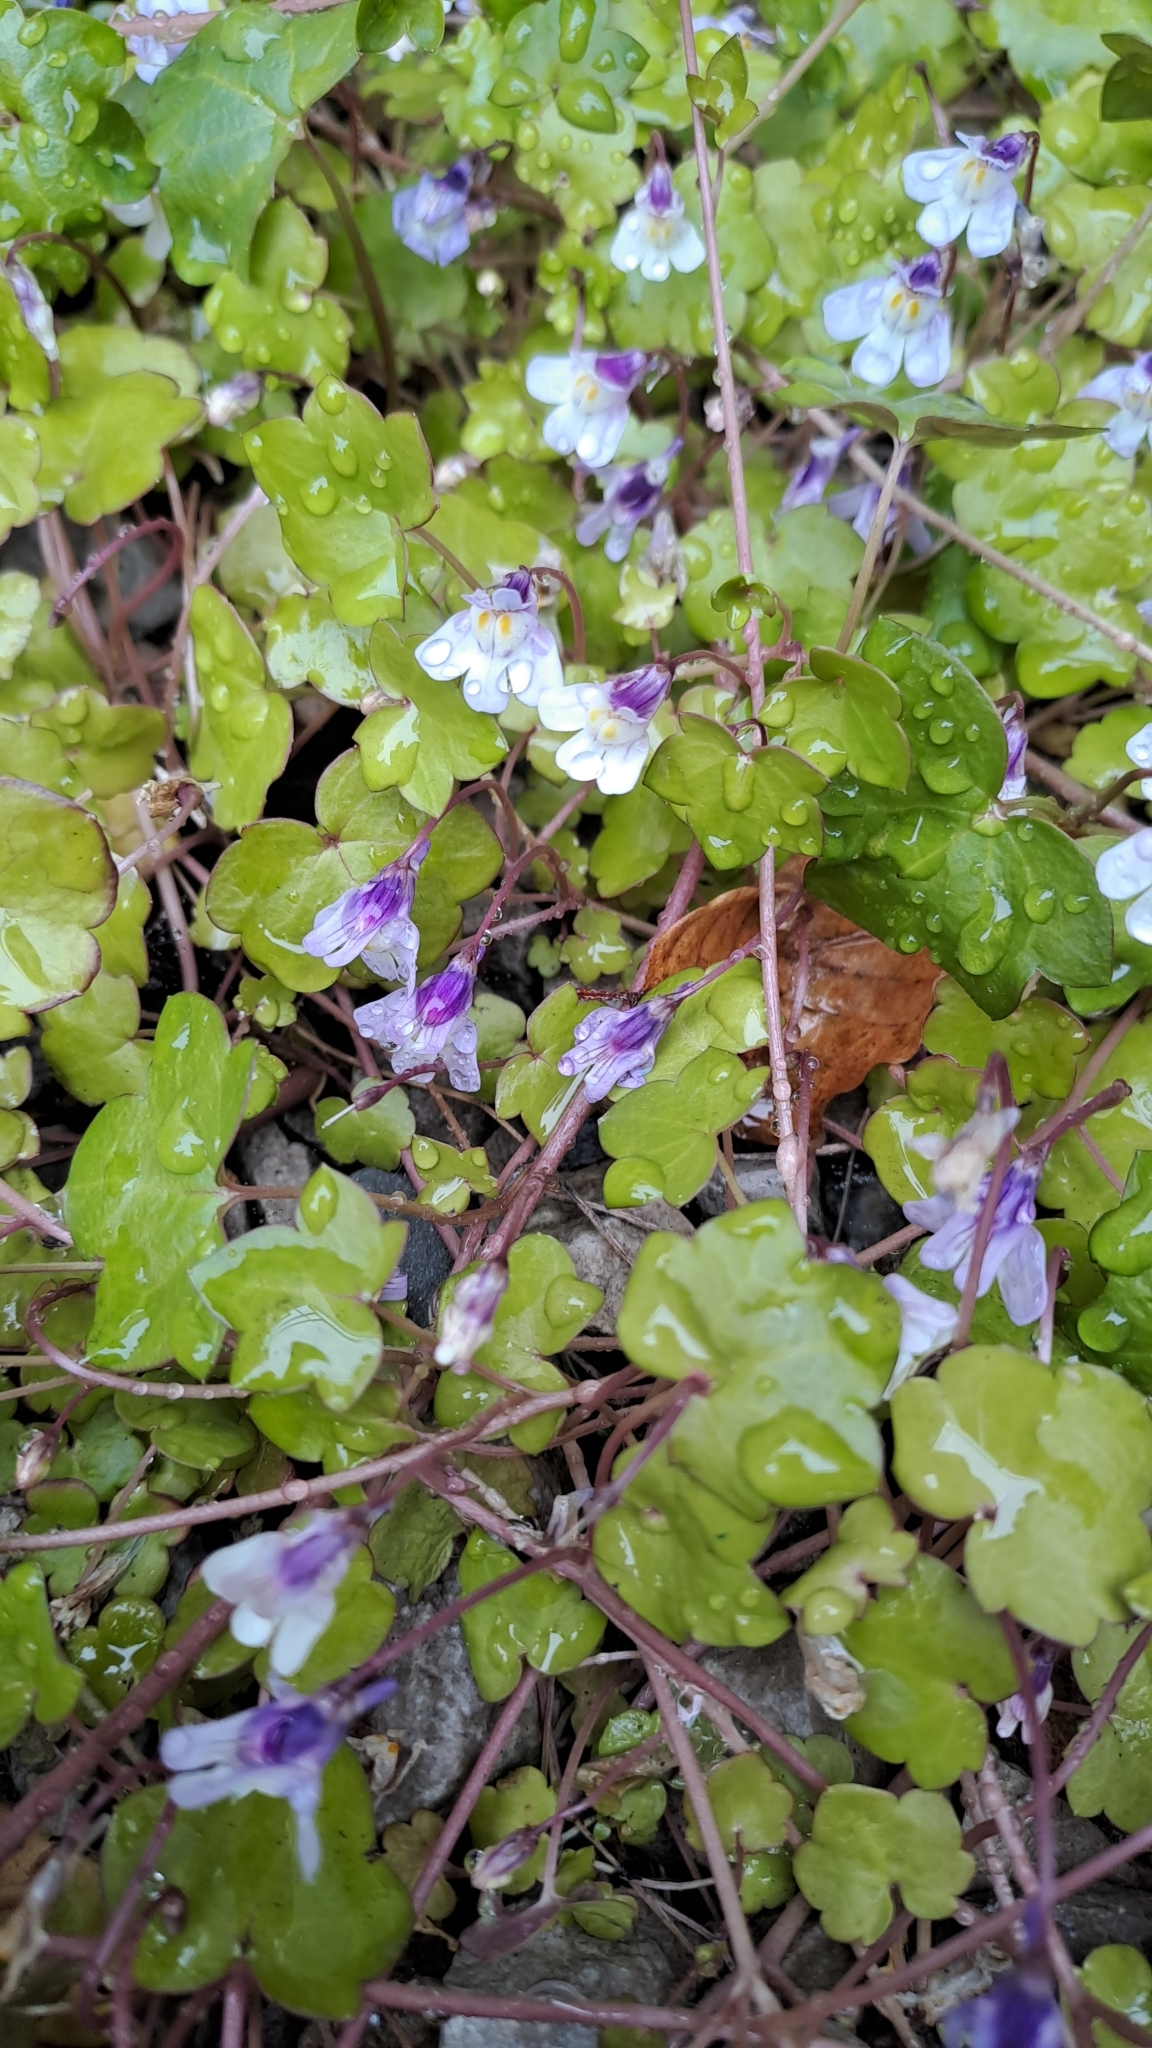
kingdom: Plantae
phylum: Tracheophyta
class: Magnoliopsida
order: Lamiales
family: Plantaginaceae
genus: Cymbalaria
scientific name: Cymbalaria muralis
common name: Ivy-leaved toadflax
